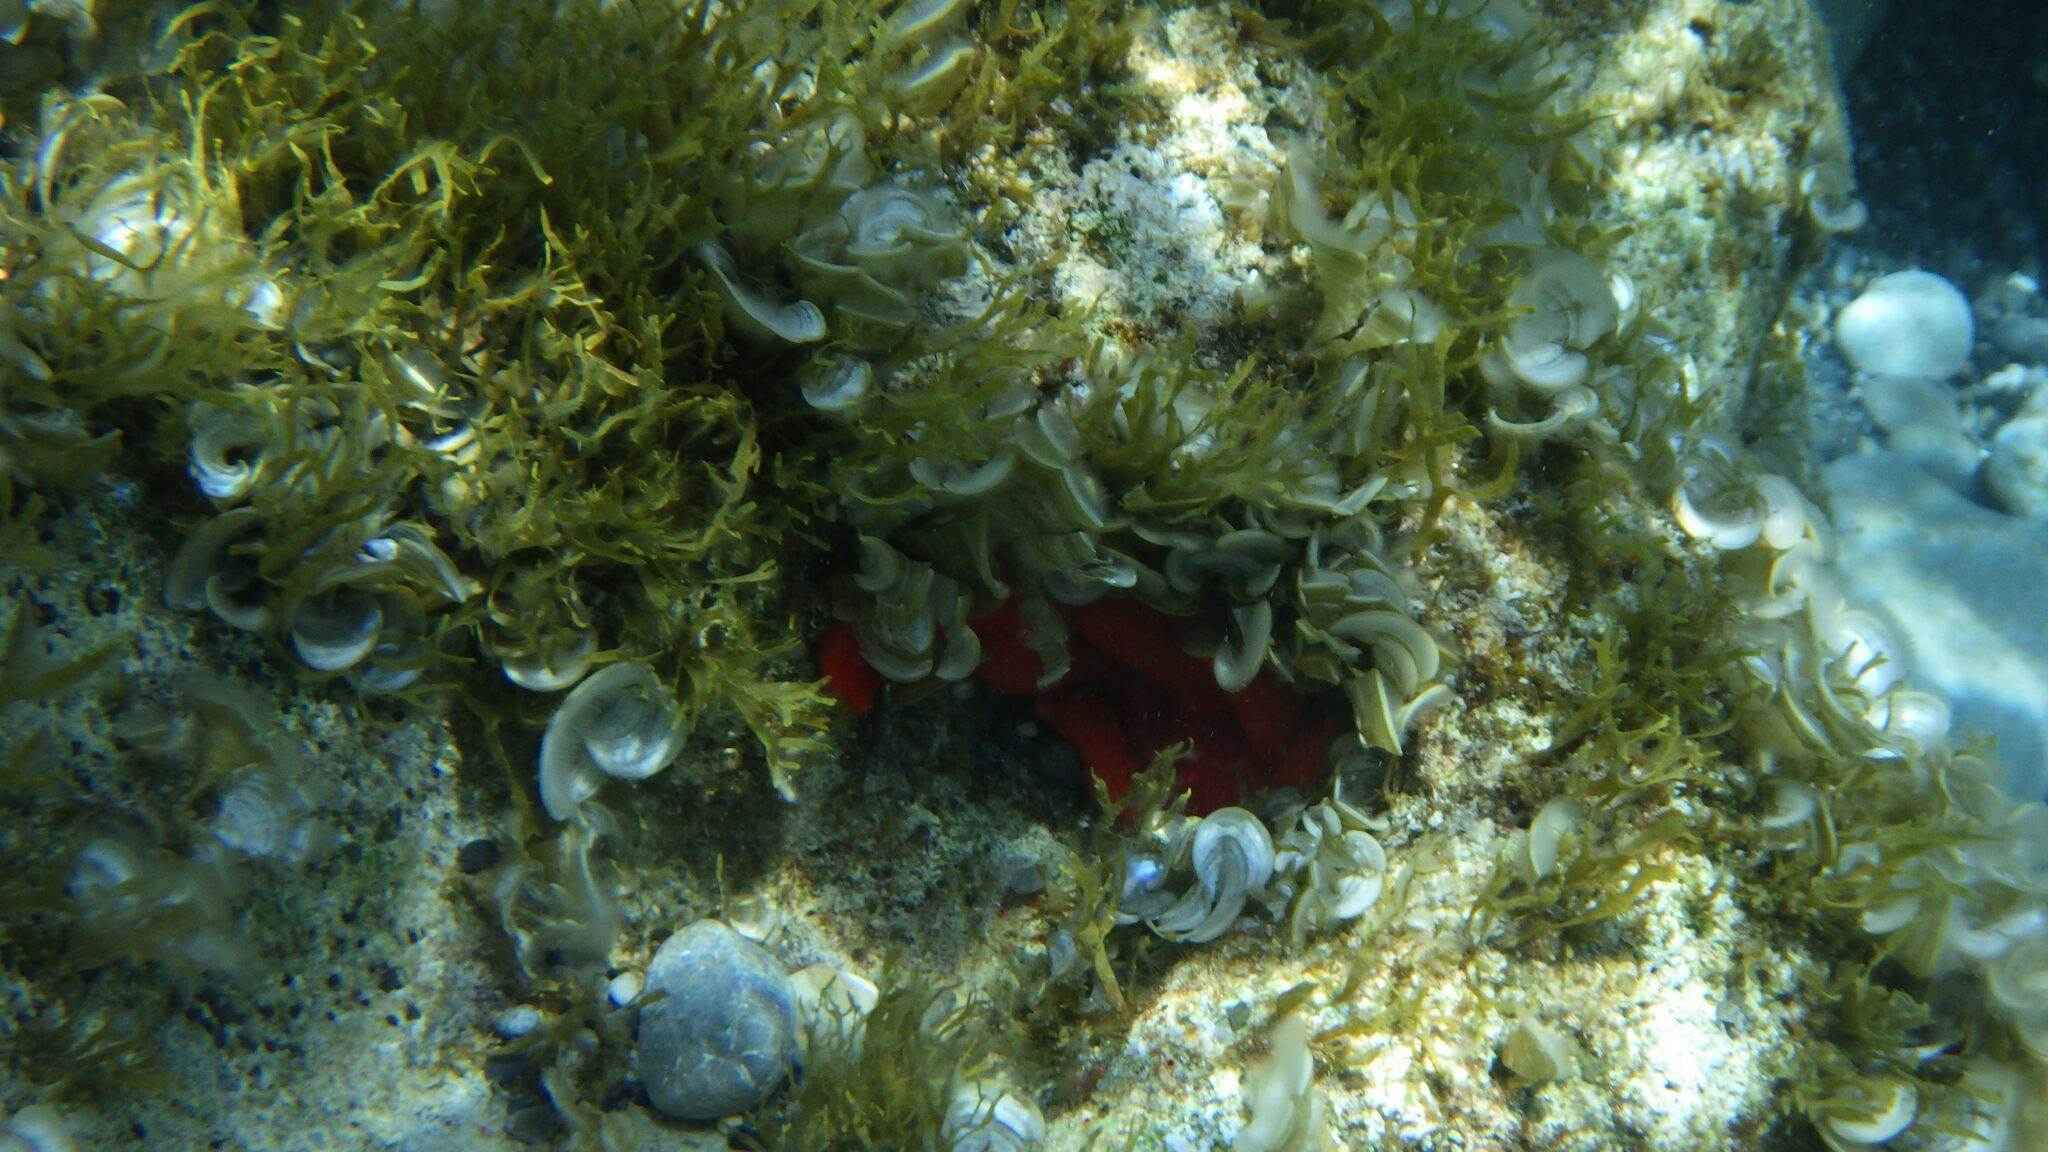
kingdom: Animalia
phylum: Echinodermata
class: Asteroidea
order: Valvatida
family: Ophidiasteridae
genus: Ophidiaster
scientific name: Ophidiaster ophidianus
